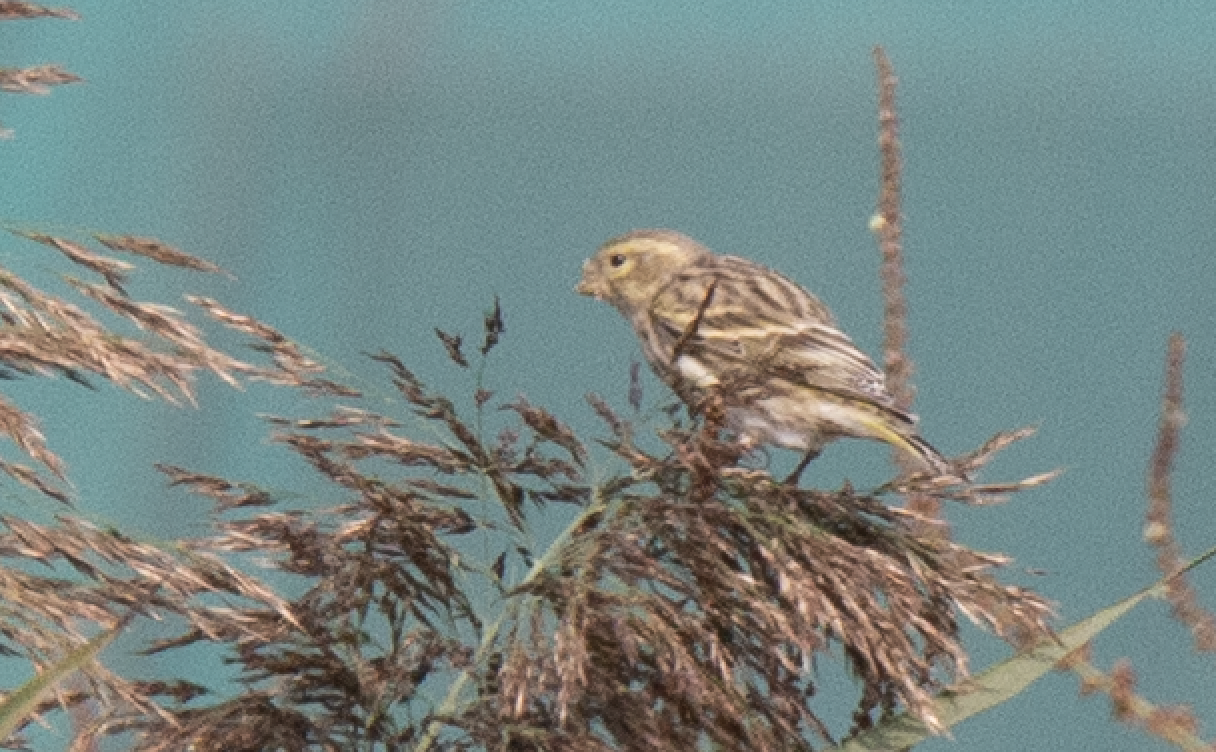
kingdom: Animalia
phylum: Chordata
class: Aves
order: Passeriformes
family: Fringillidae
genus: Serinus
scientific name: Serinus serinus
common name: European serin
